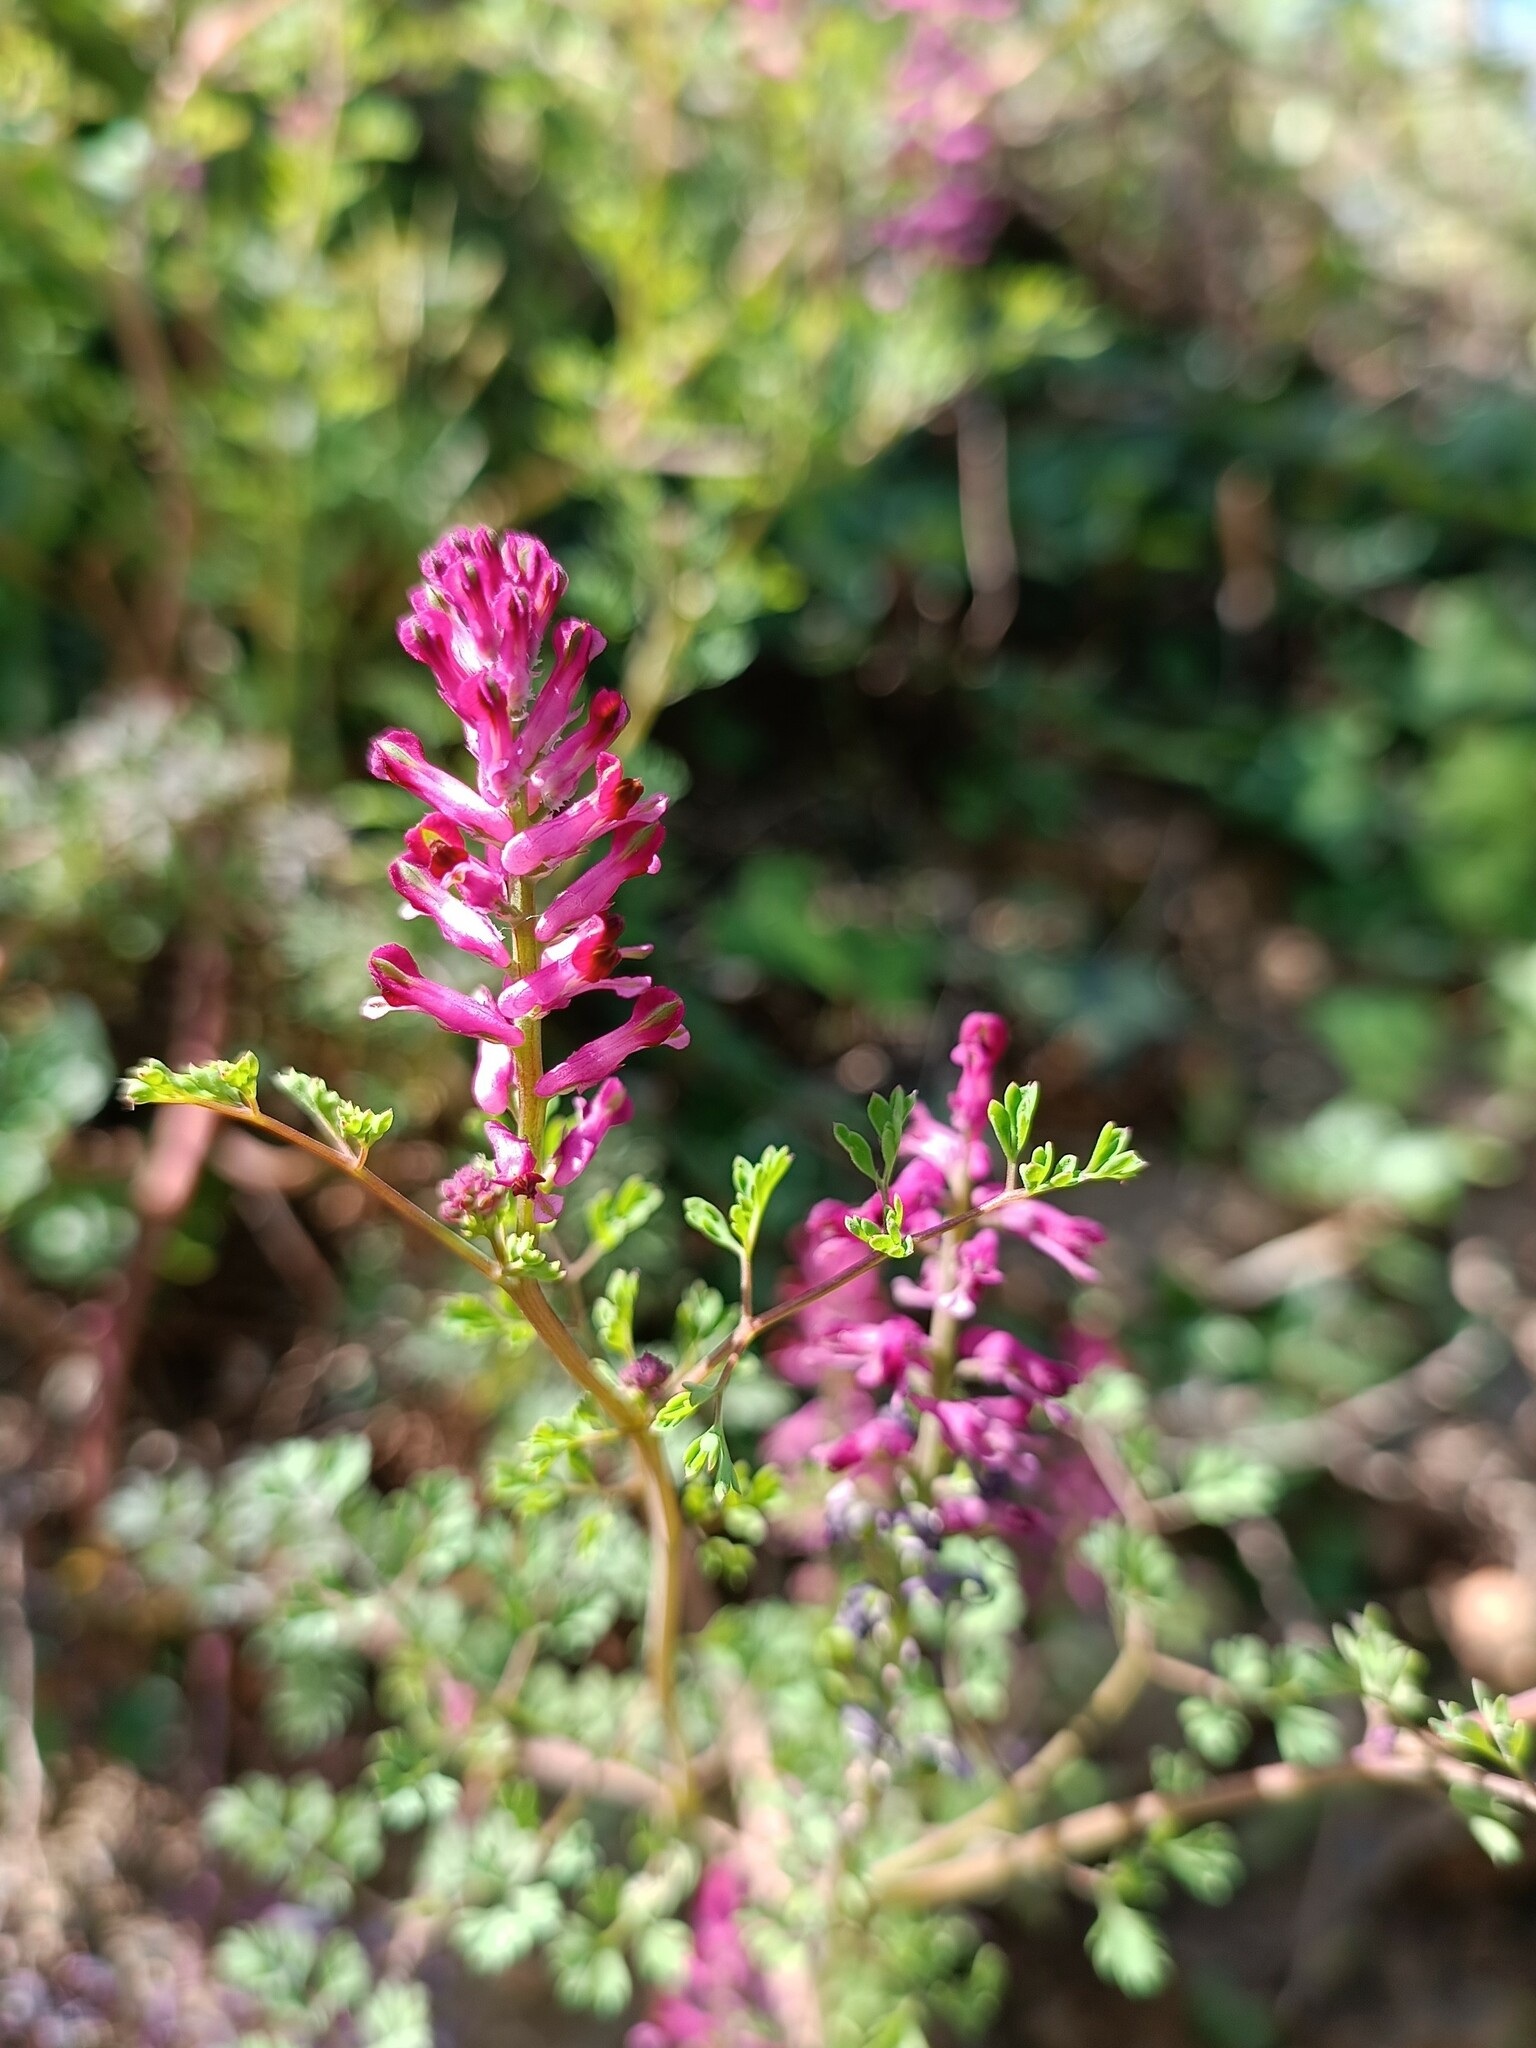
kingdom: Plantae
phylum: Tracheophyta
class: Magnoliopsida
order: Ranunculales
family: Papaveraceae
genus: Fumaria
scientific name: Fumaria officinalis
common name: Common fumitory
